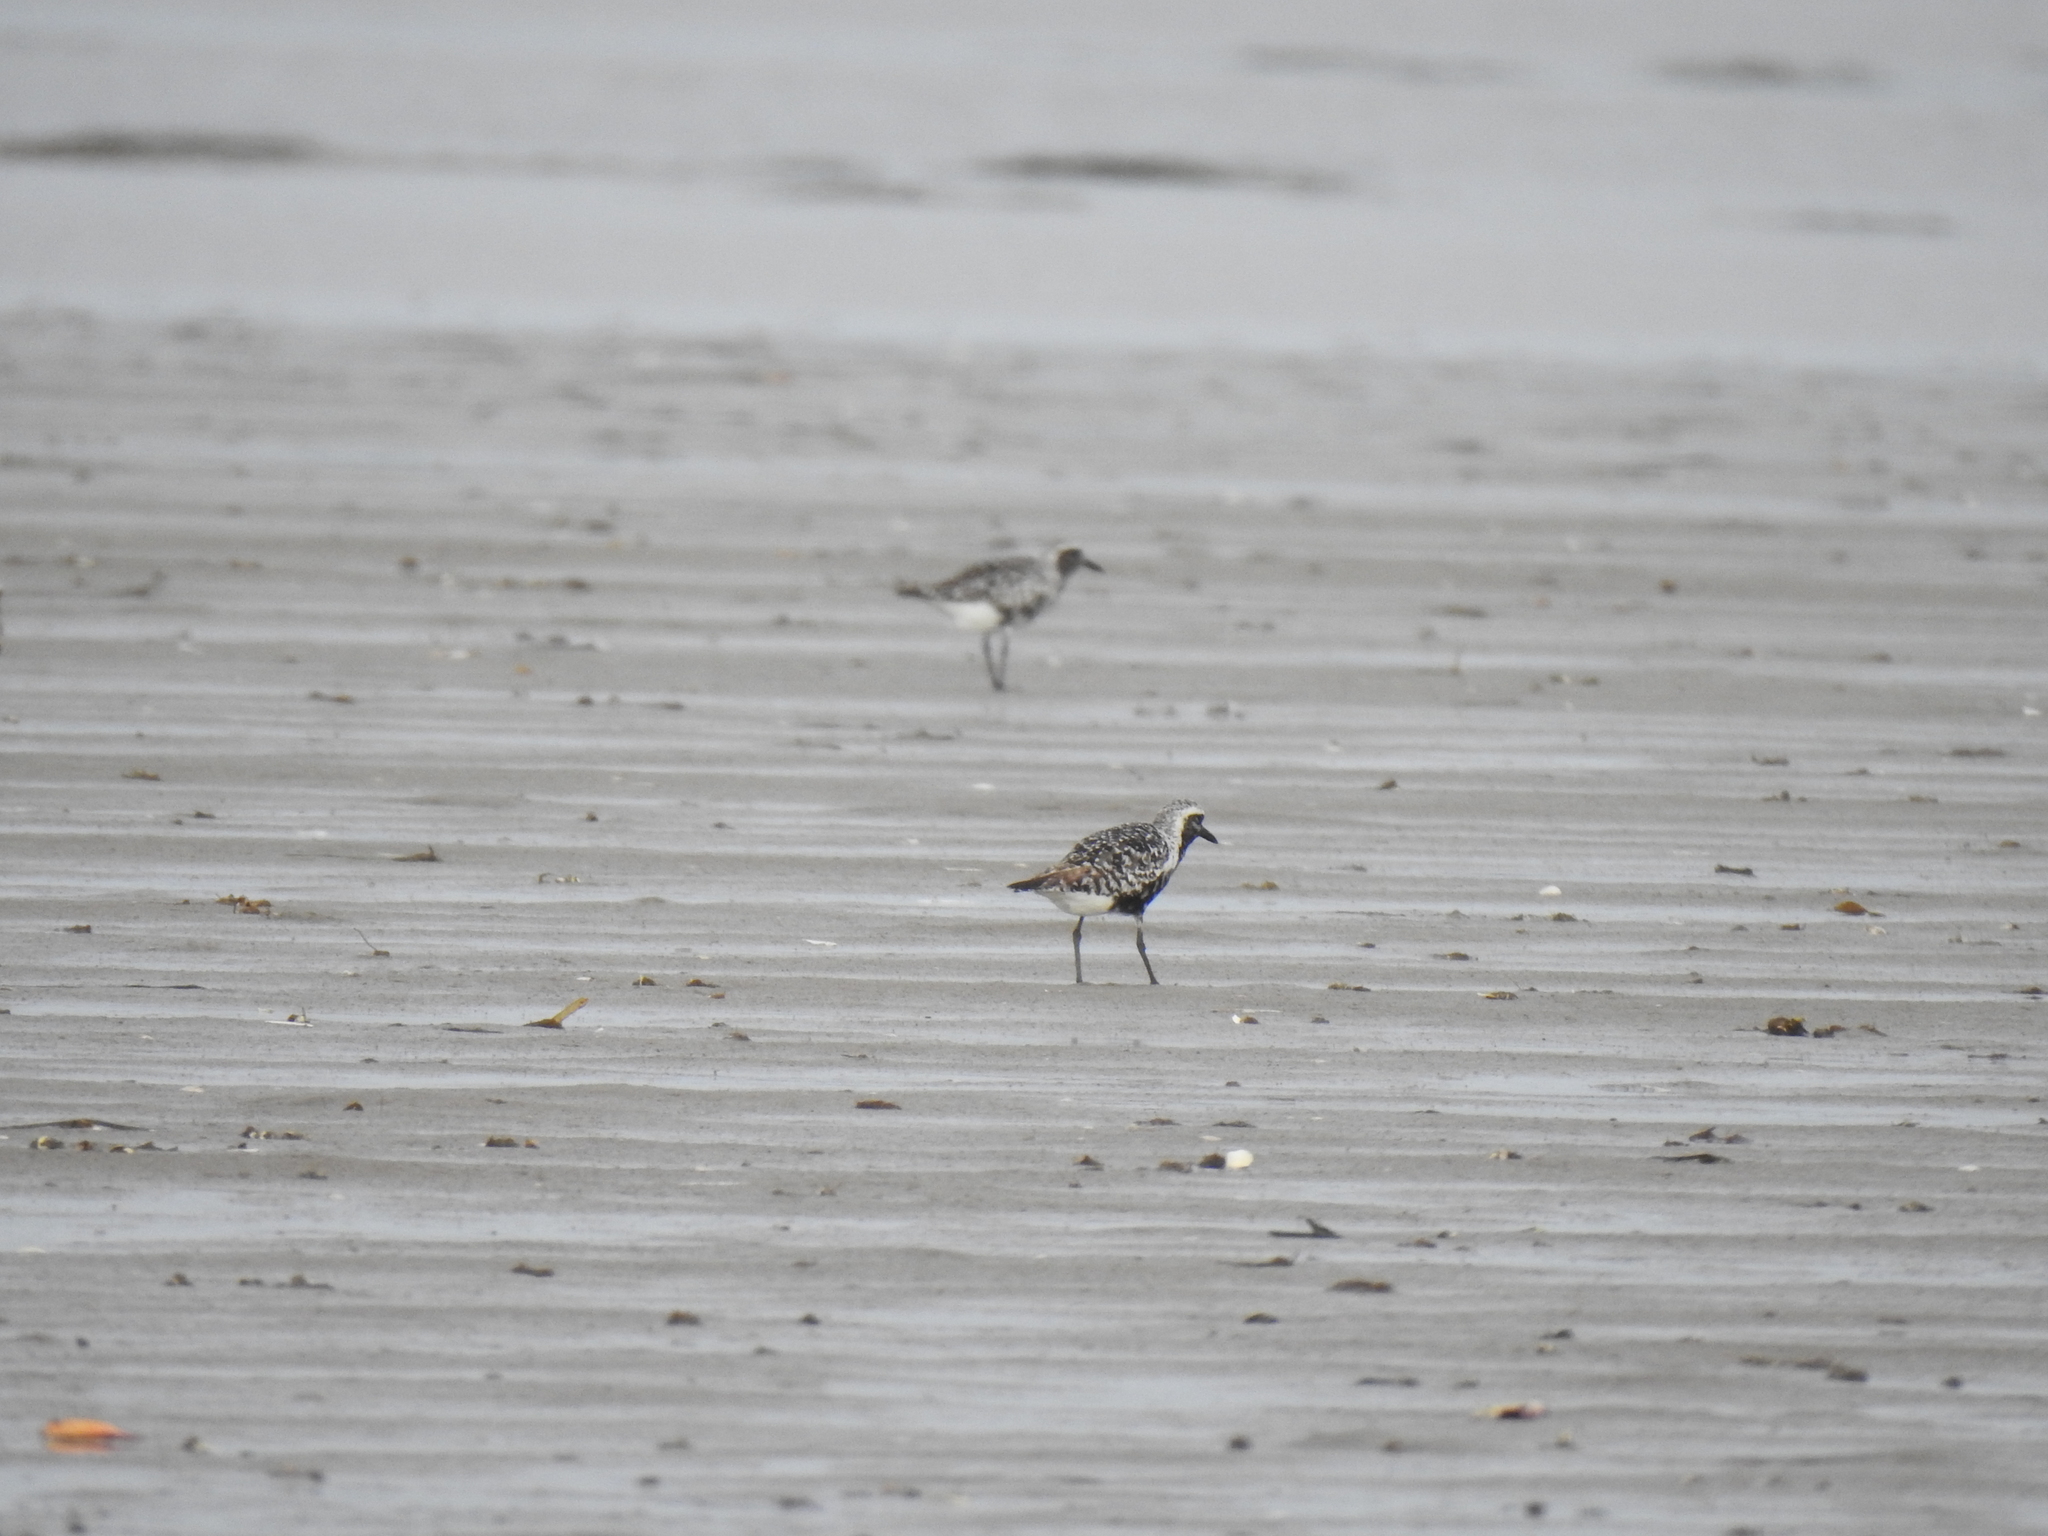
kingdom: Animalia
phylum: Chordata
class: Aves
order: Charadriiformes
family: Charadriidae
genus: Pluvialis
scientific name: Pluvialis squatarola
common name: Grey plover
